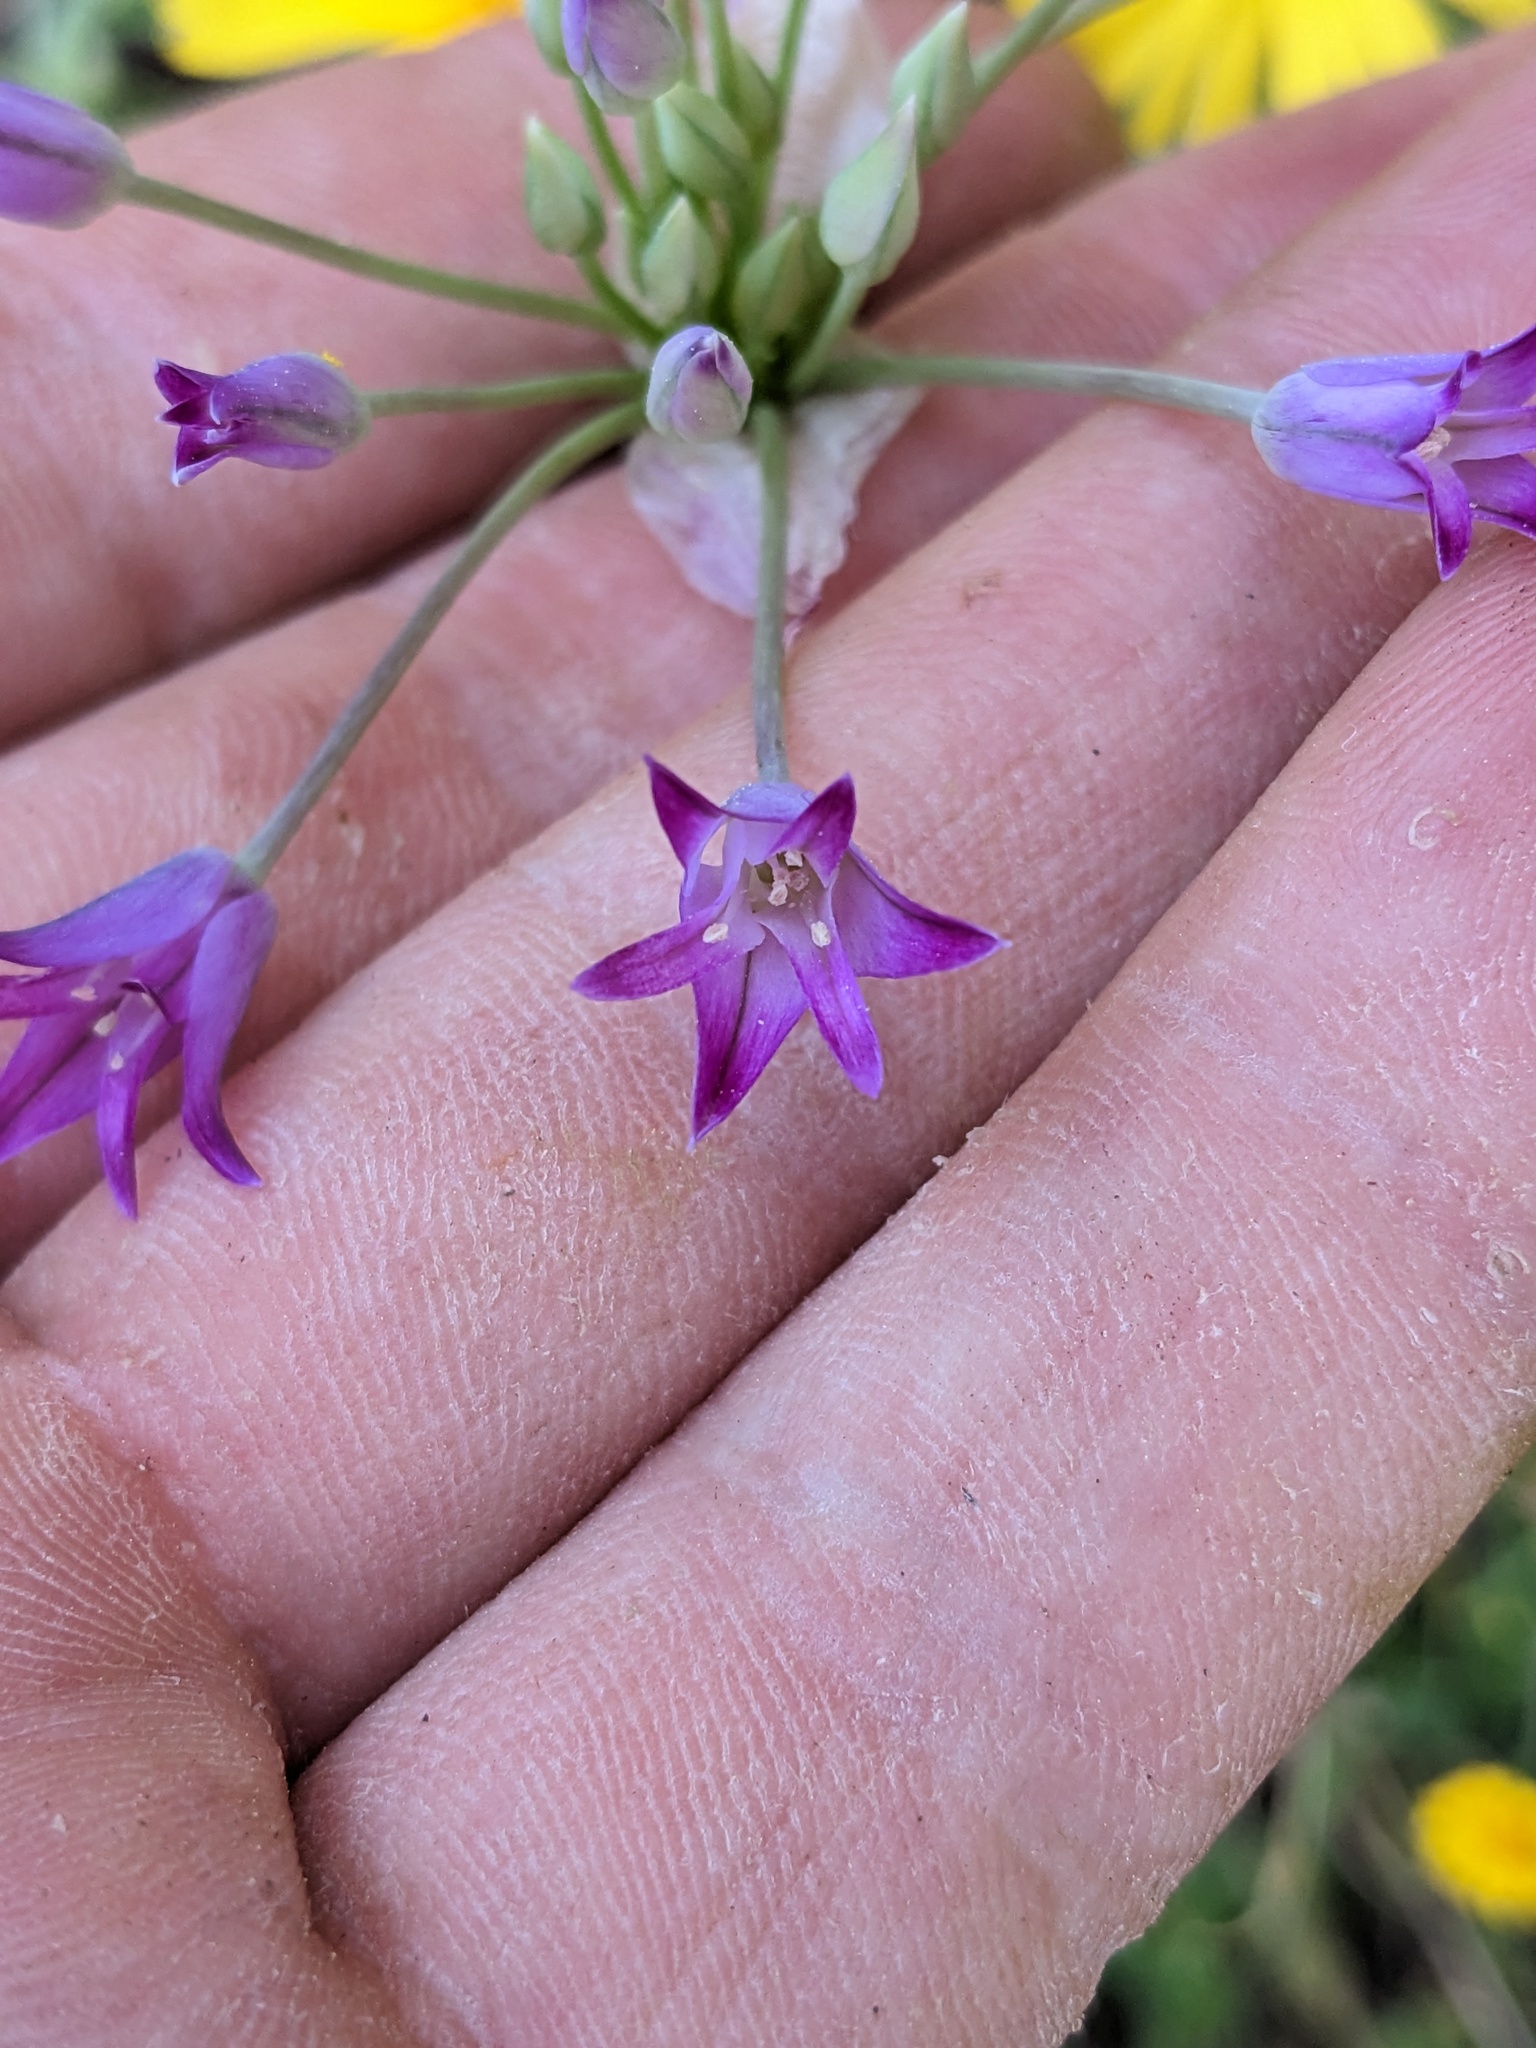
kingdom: Plantae
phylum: Tracheophyta
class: Liliopsida
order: Asparagales
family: Amaryllidaceae
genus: Allium
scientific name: Allium peninsulare
